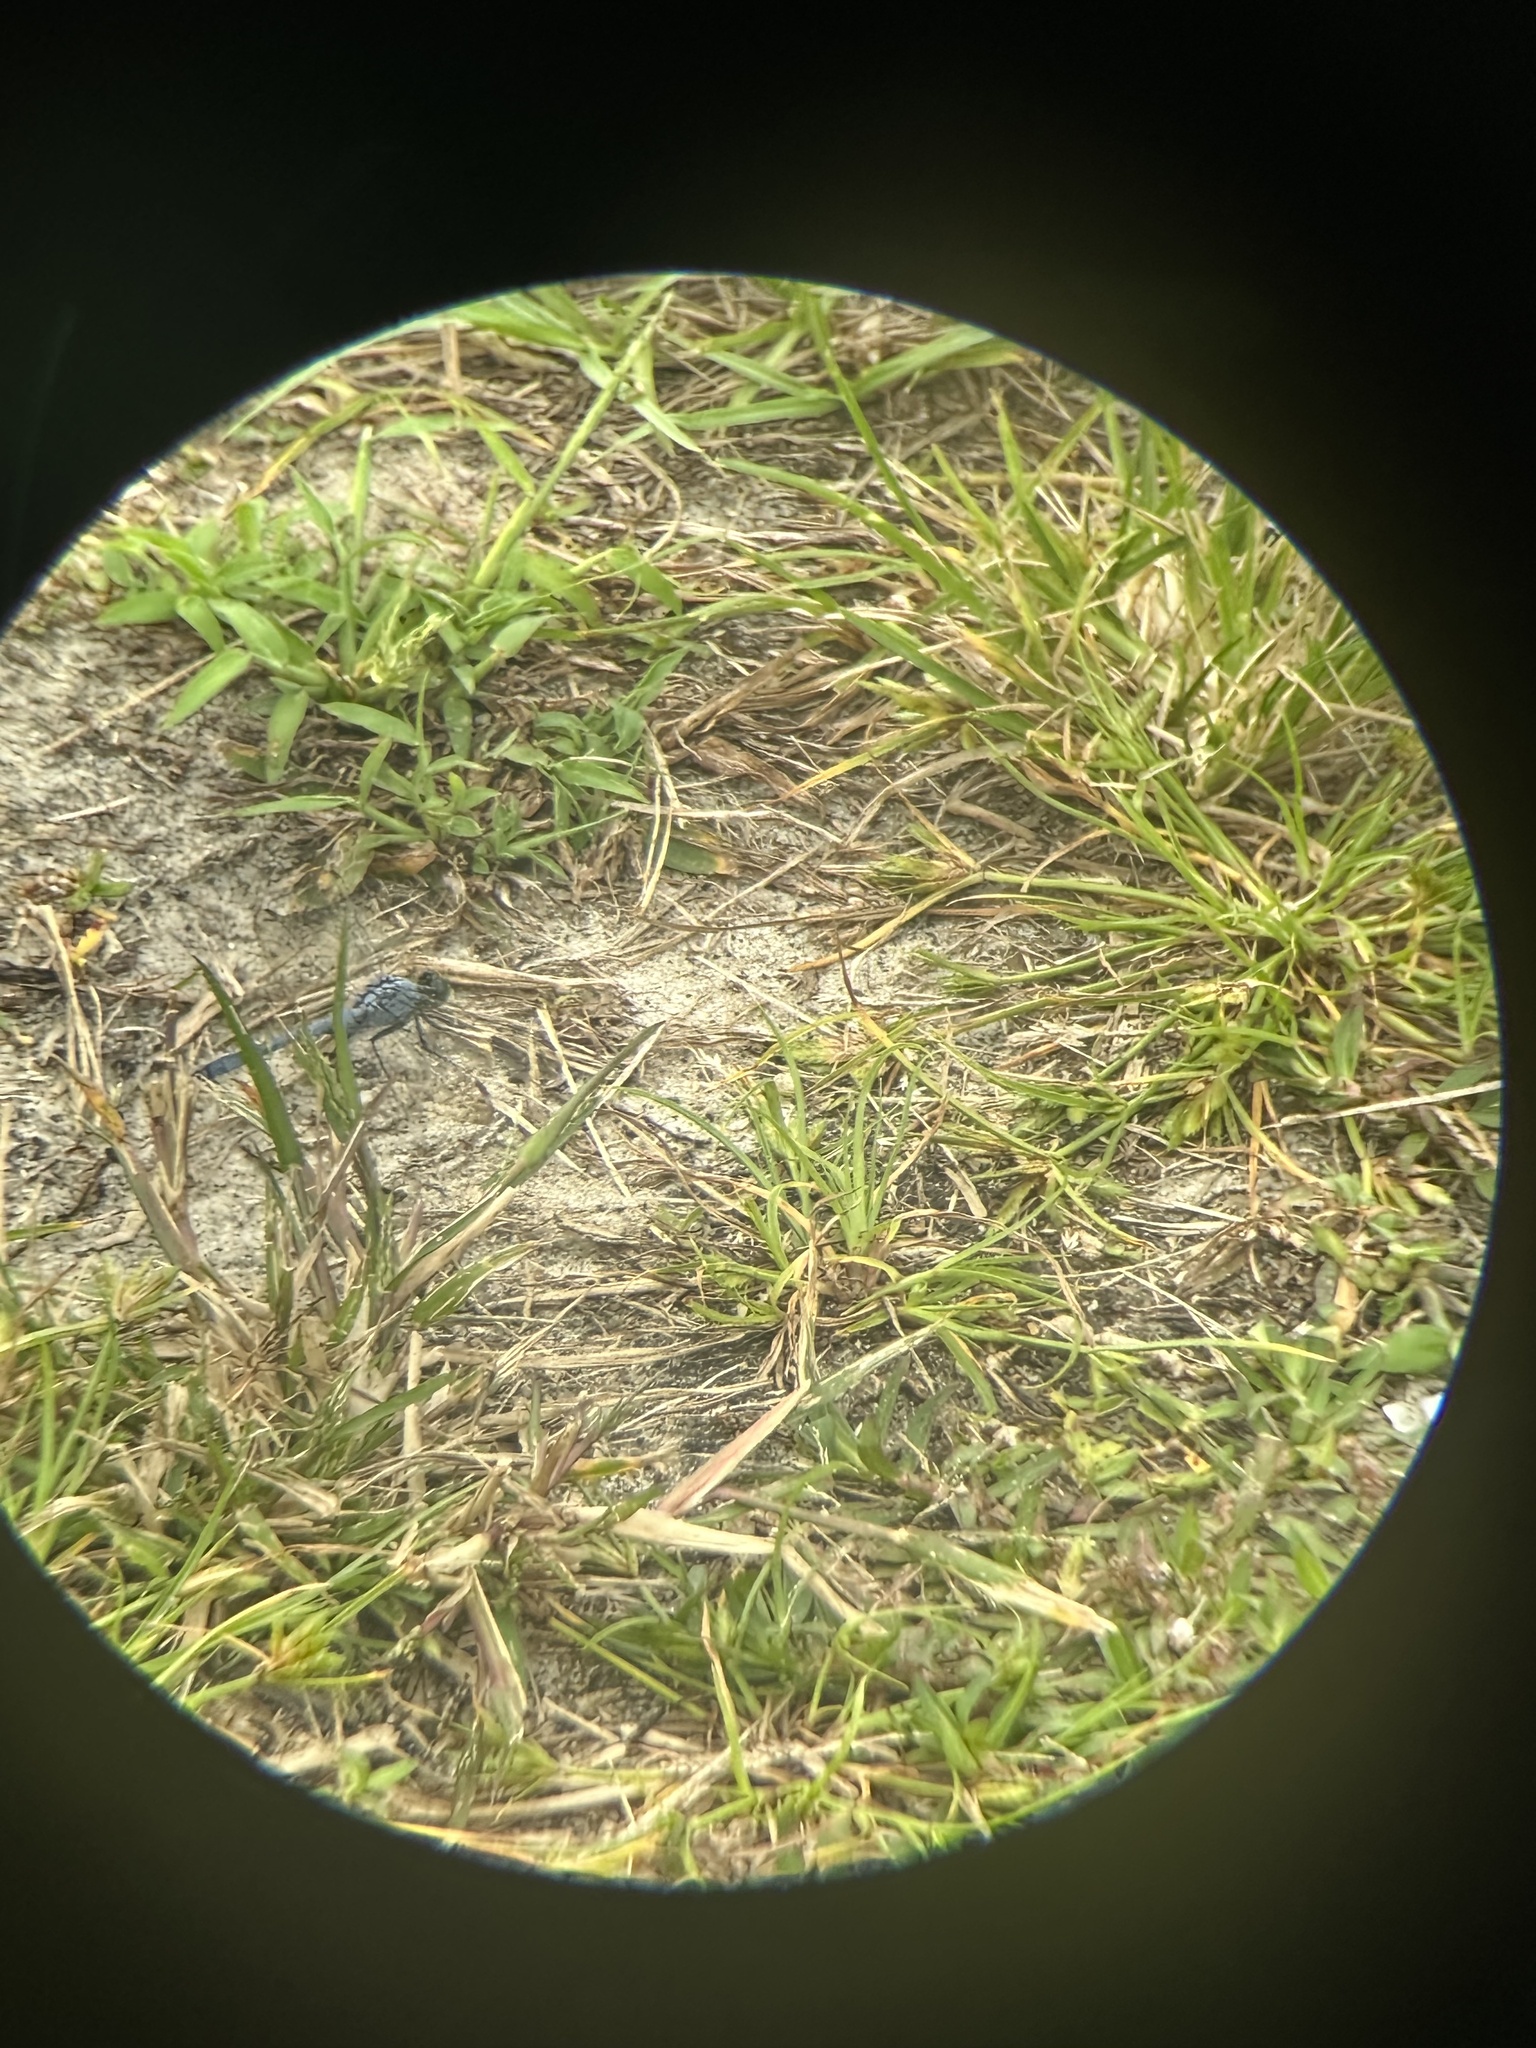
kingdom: Animalia
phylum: Arthropoda
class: Insecta
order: Odonata
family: Libellulidae
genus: Erythemis
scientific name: Erythemis simplicicollis
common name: Eastern pondhawk
